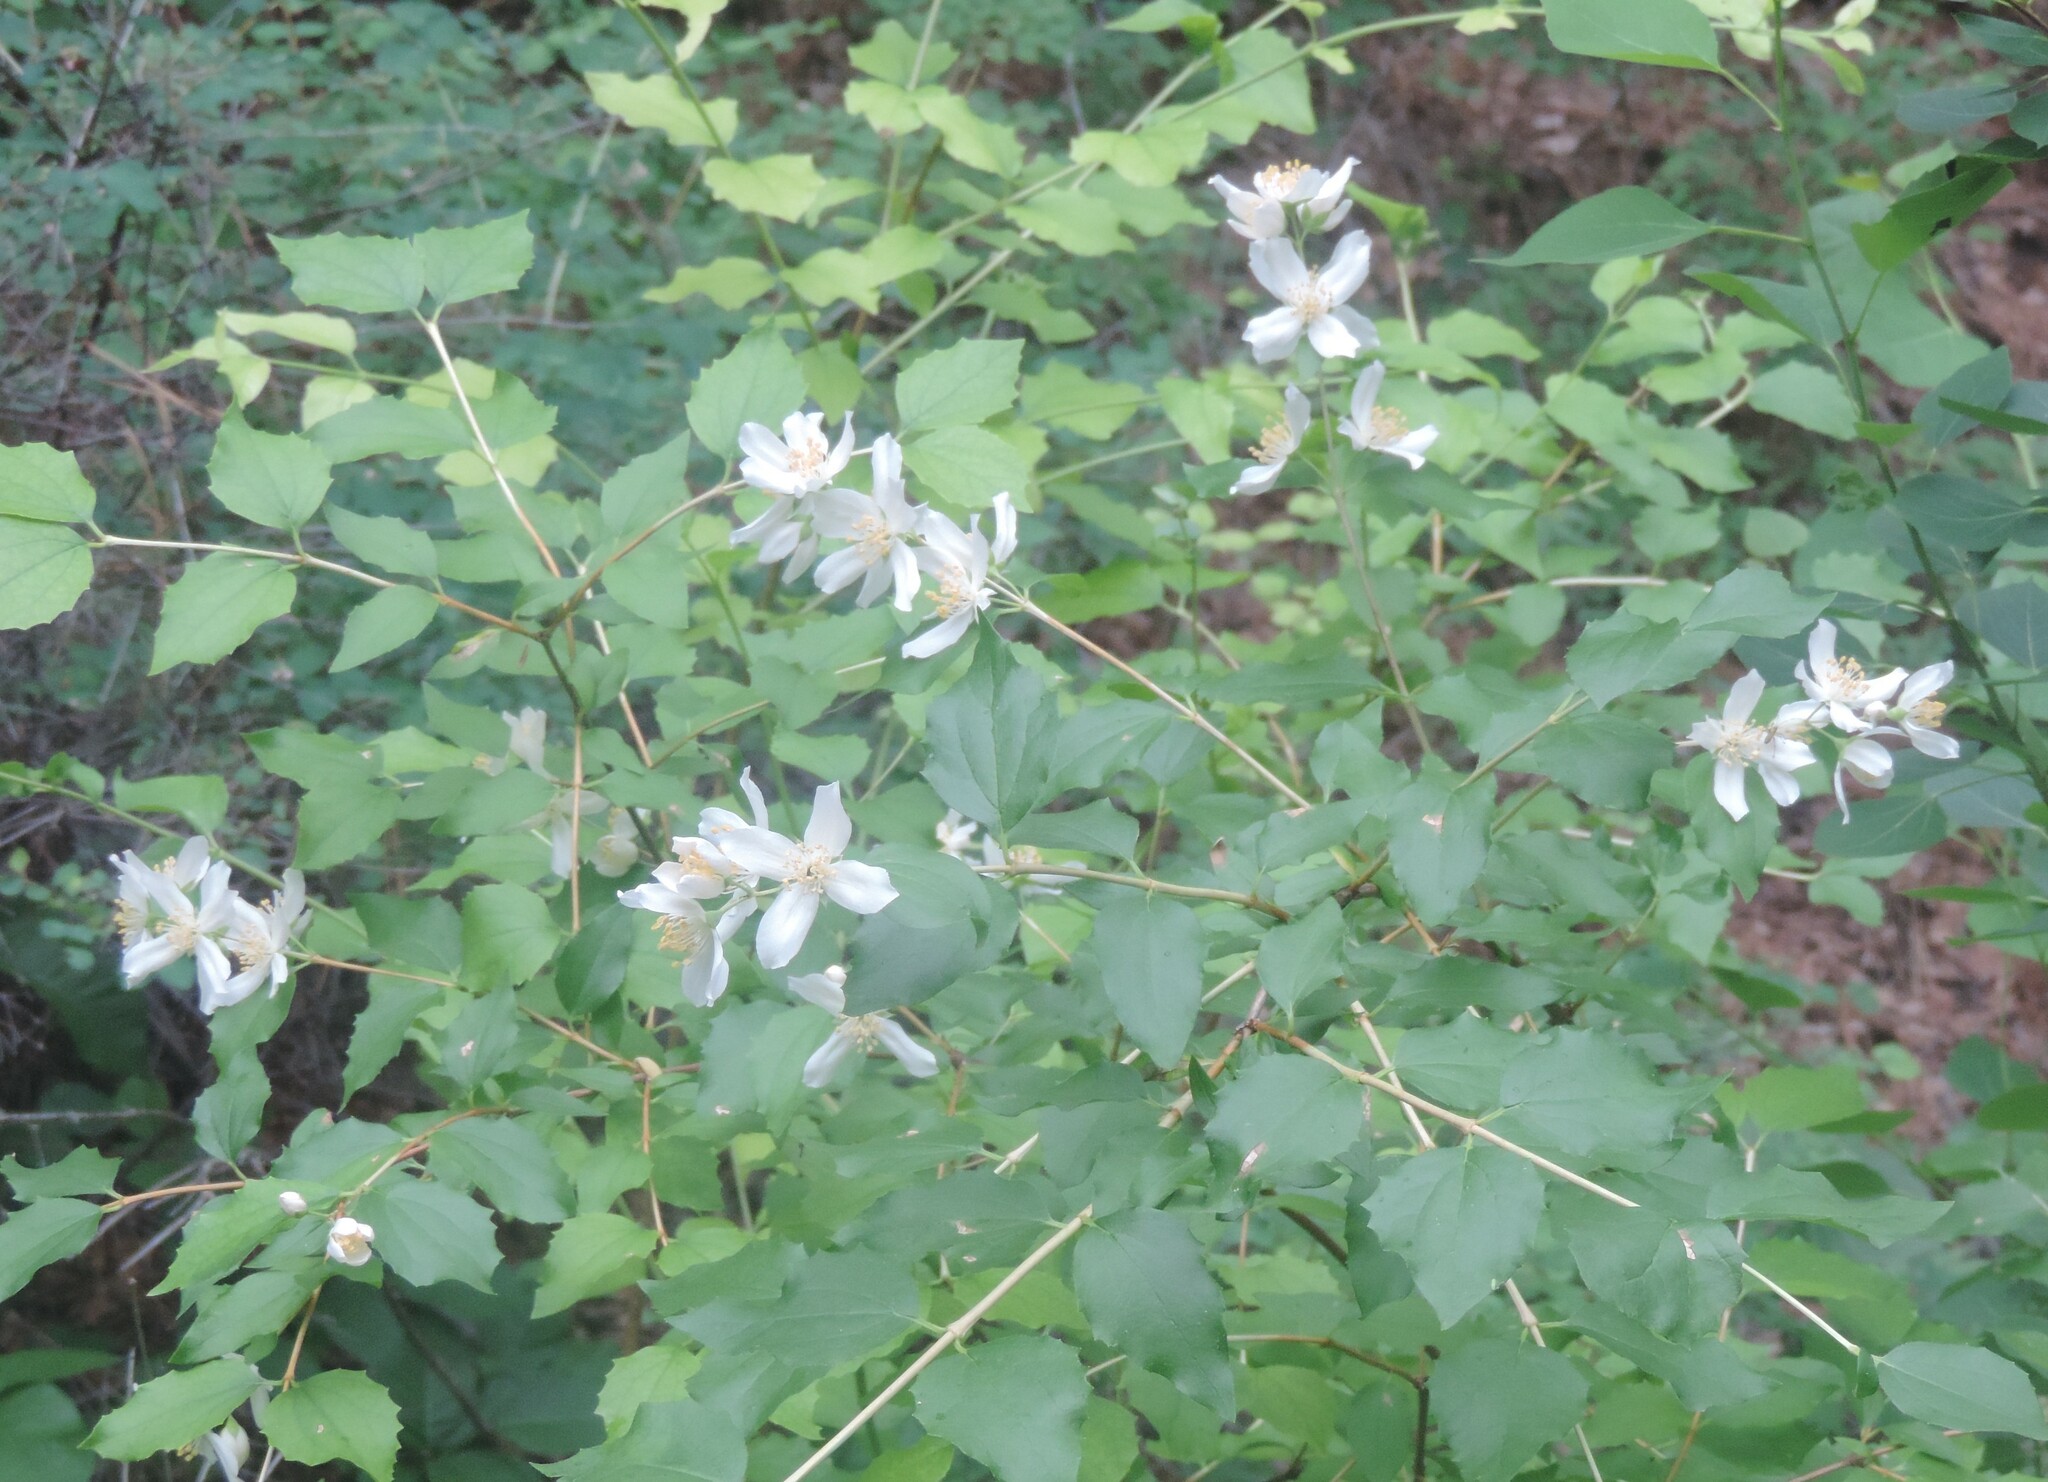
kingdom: Plantae
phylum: Tracheophyta
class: Magnoliopsida
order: Cornales
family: Hydrangeaceae
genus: Philadelphus
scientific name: Philadelphus lewisii
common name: Lewis's mock orange
